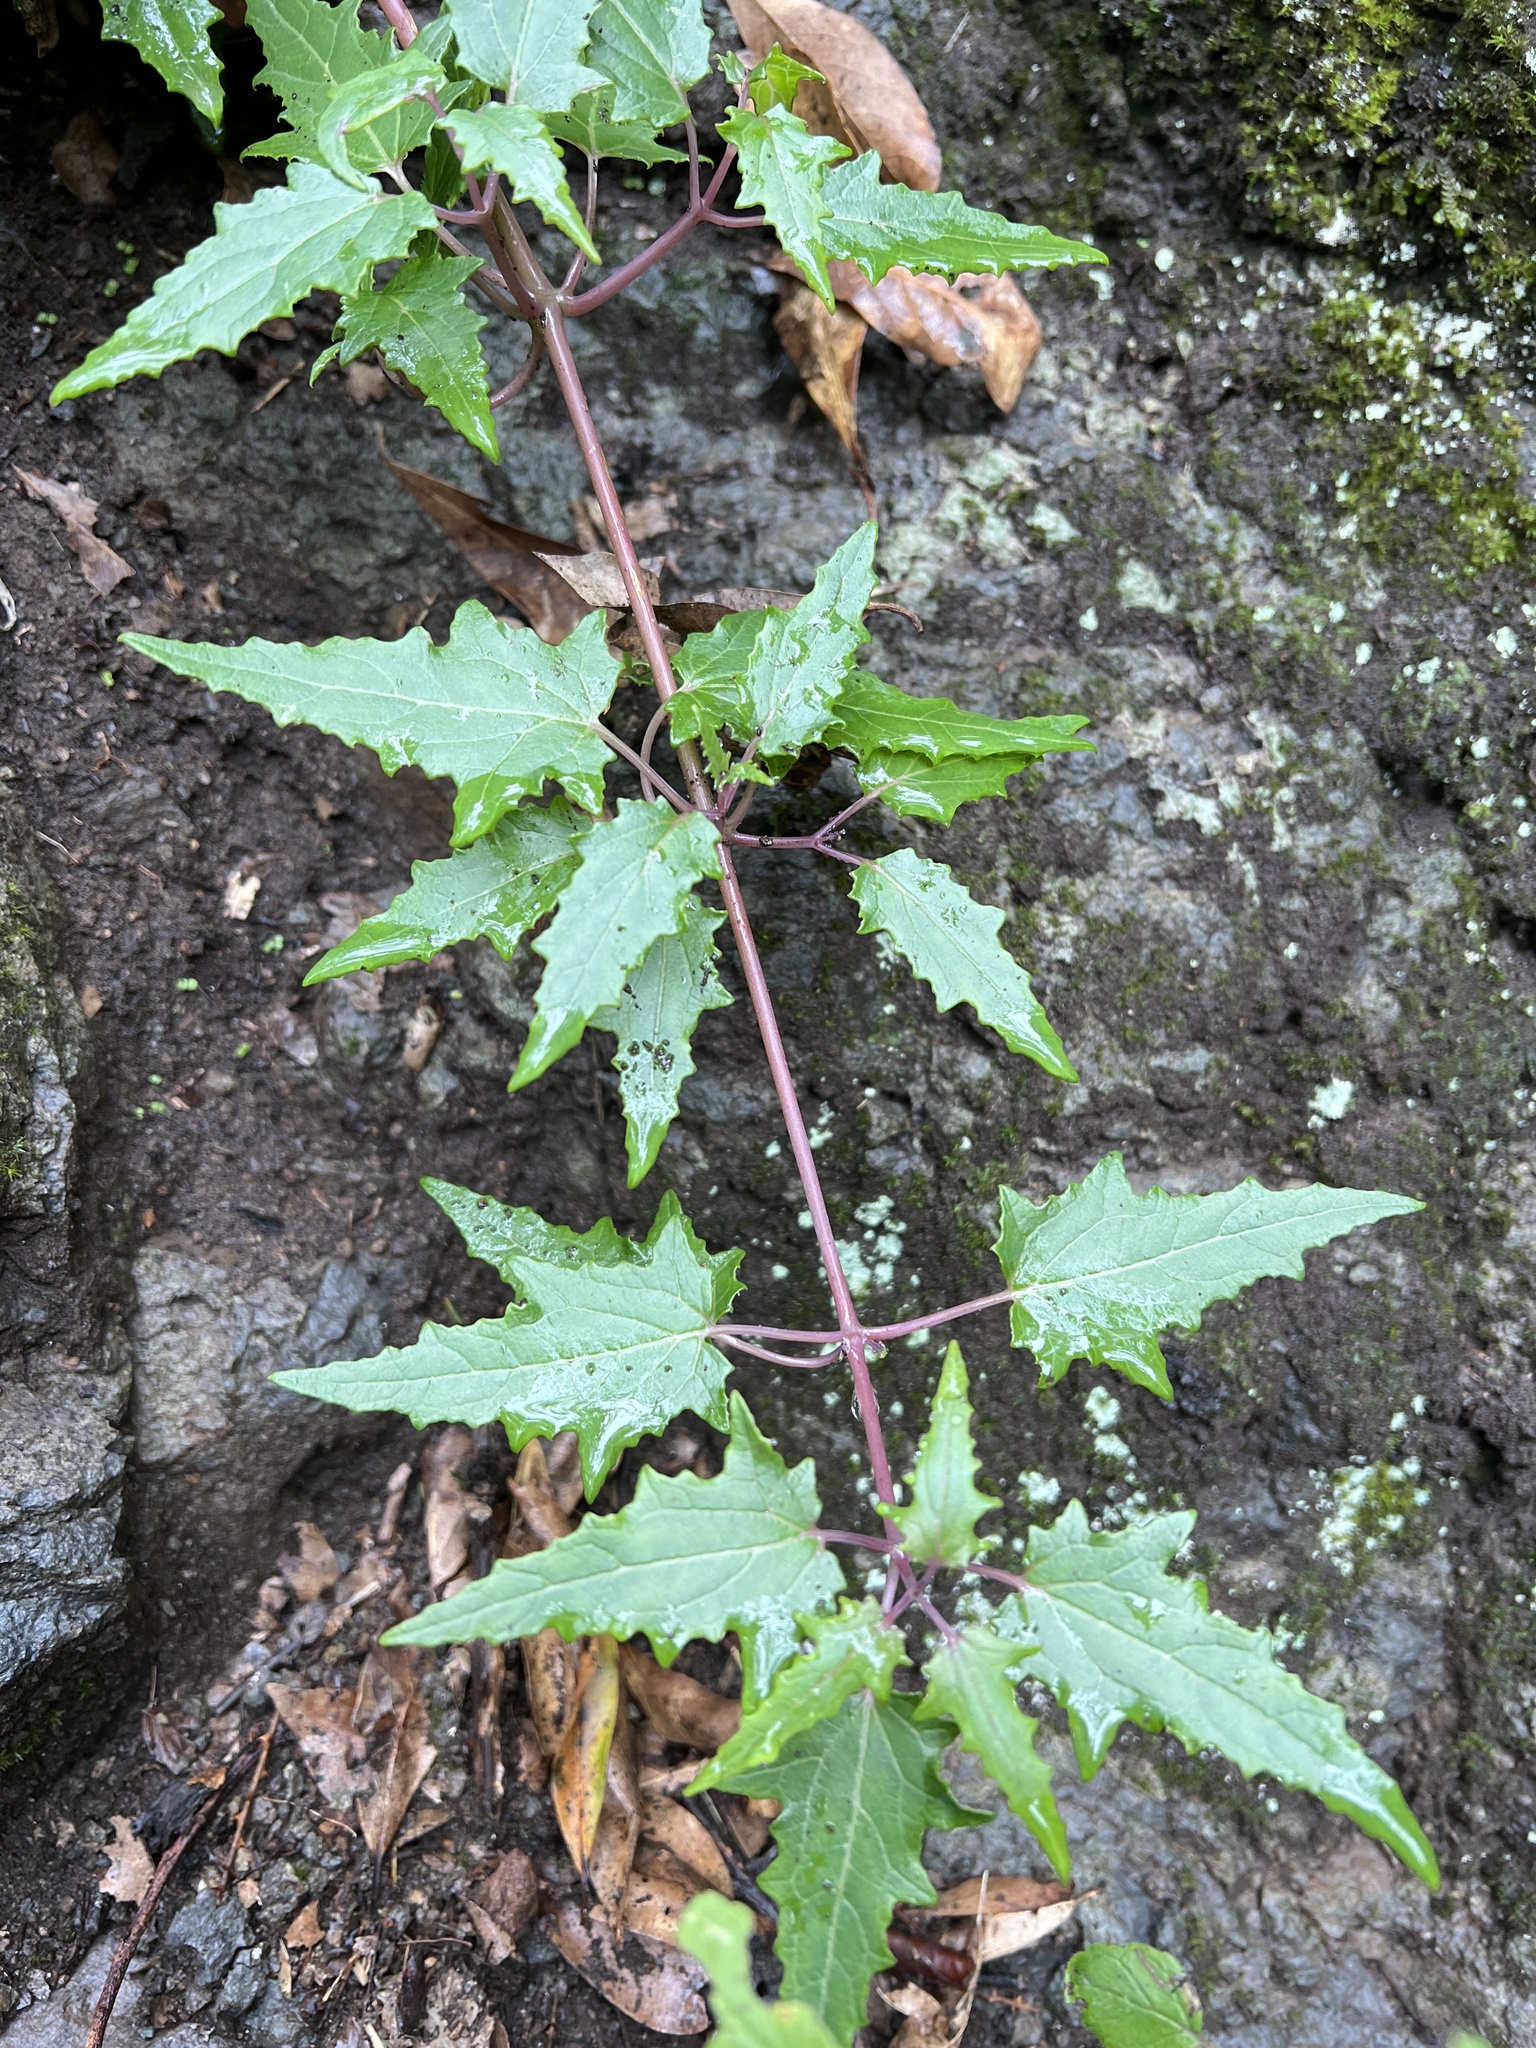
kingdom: Plantae
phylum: Tracheophyta
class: Magnoliopsida
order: Asterales
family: Campanulaceae
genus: Canarina
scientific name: Canarina canariensis
